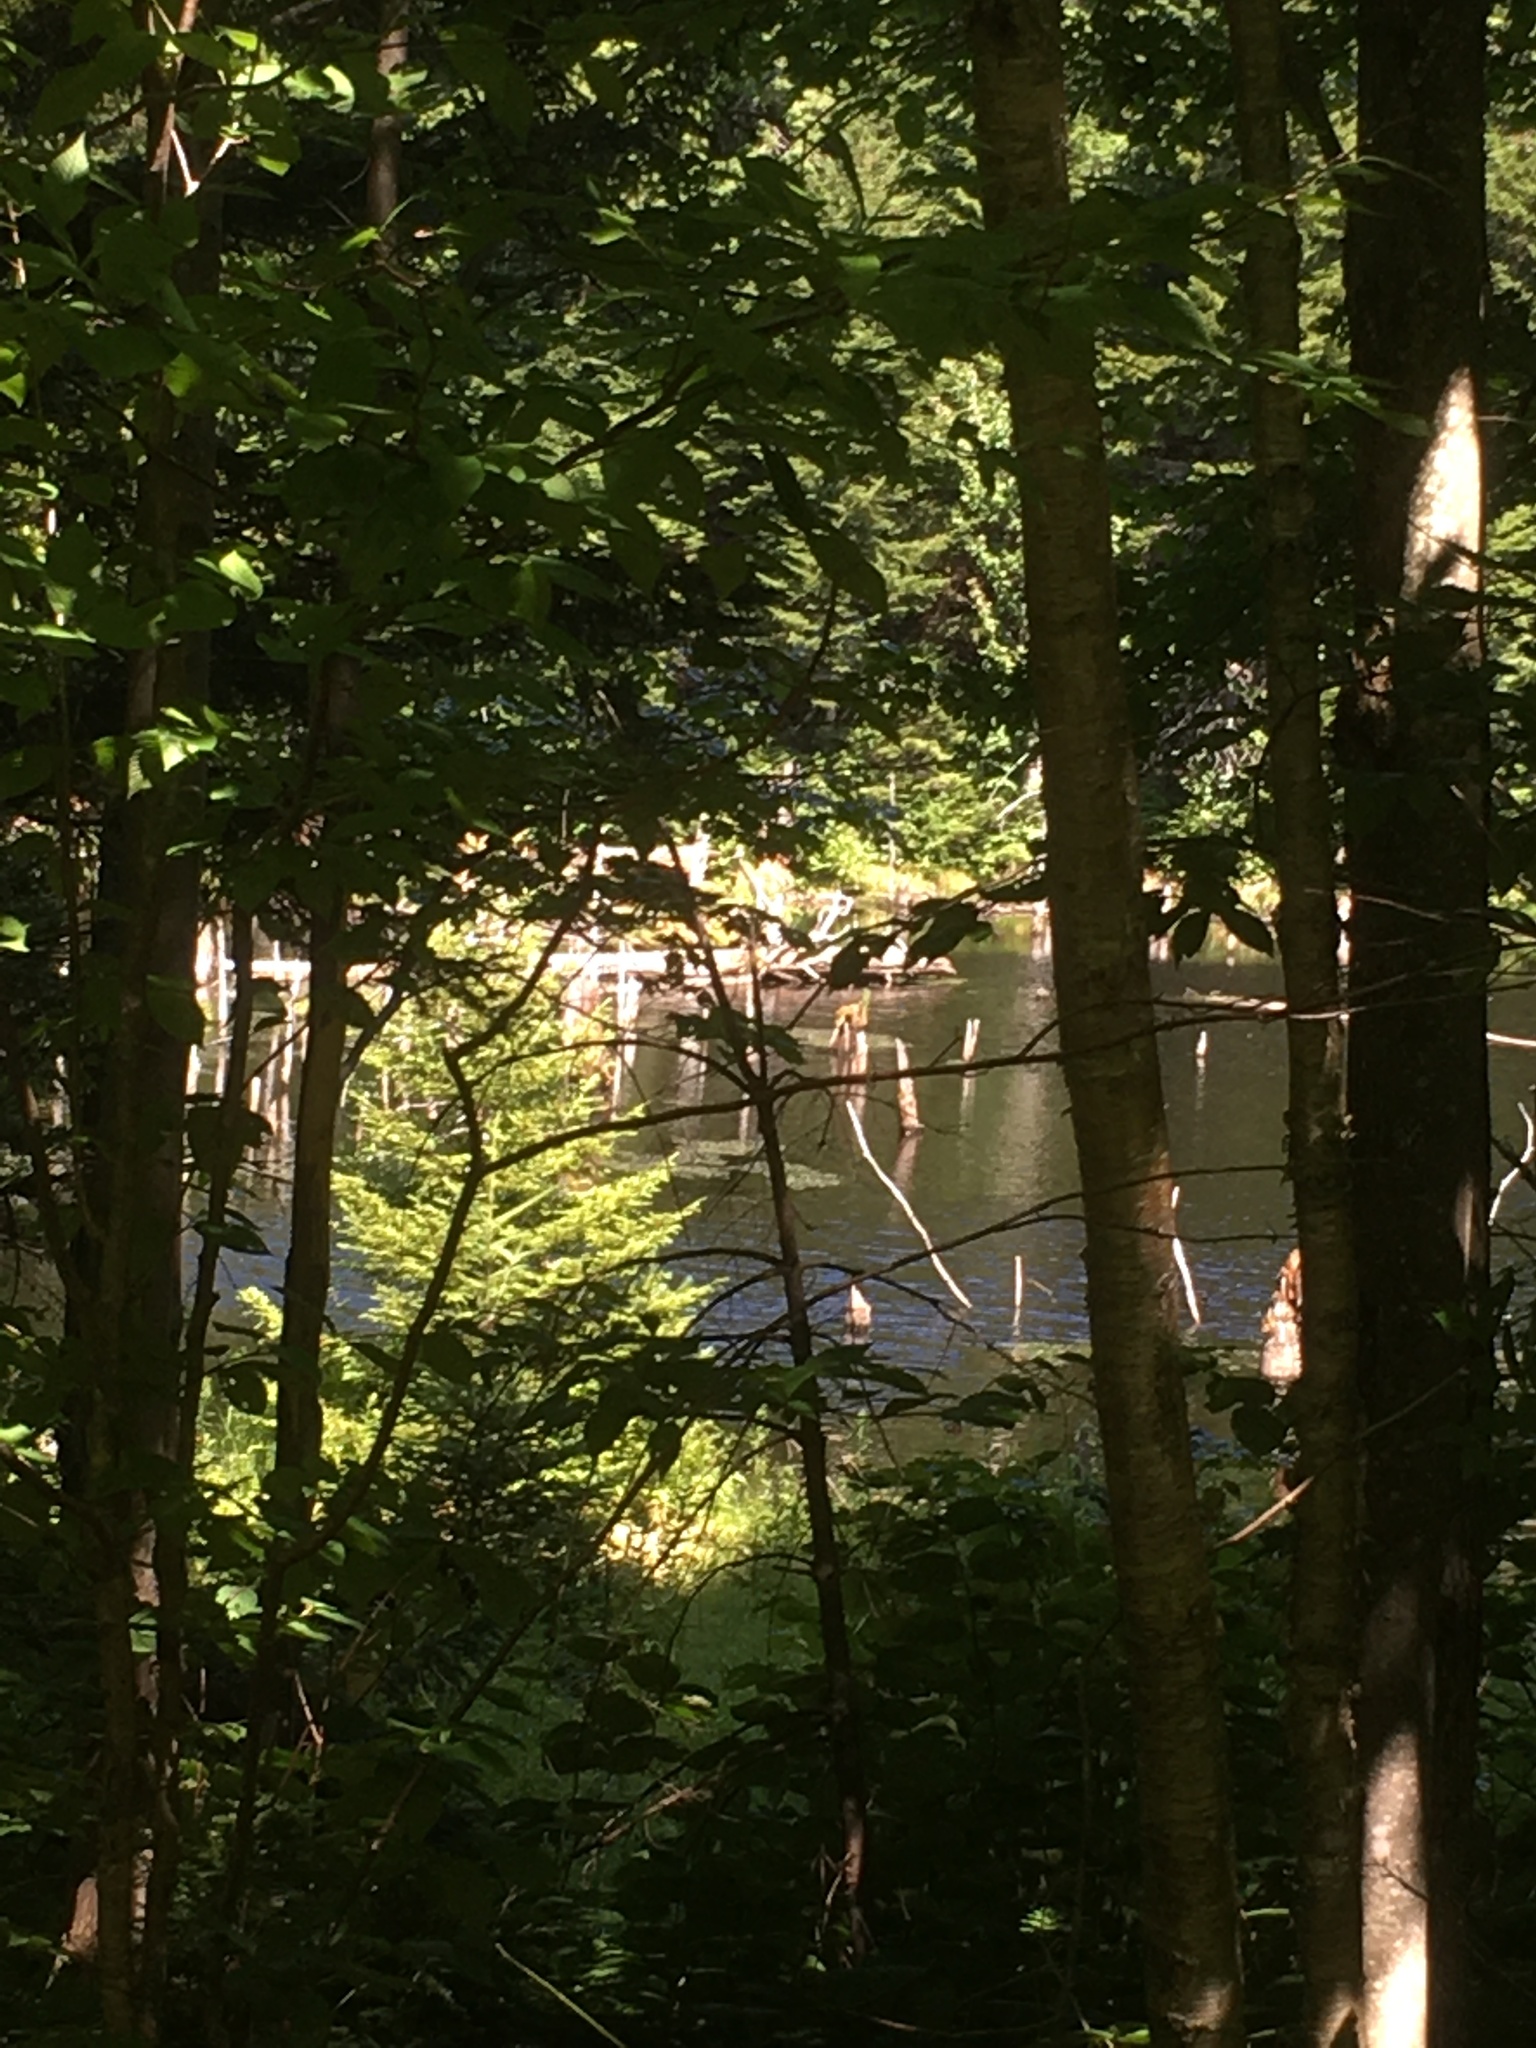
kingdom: Animalia
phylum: Chordata
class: Mammalia
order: Rodentia
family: Castoridae
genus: Castor
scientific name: Castor canadensis
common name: American beaver
